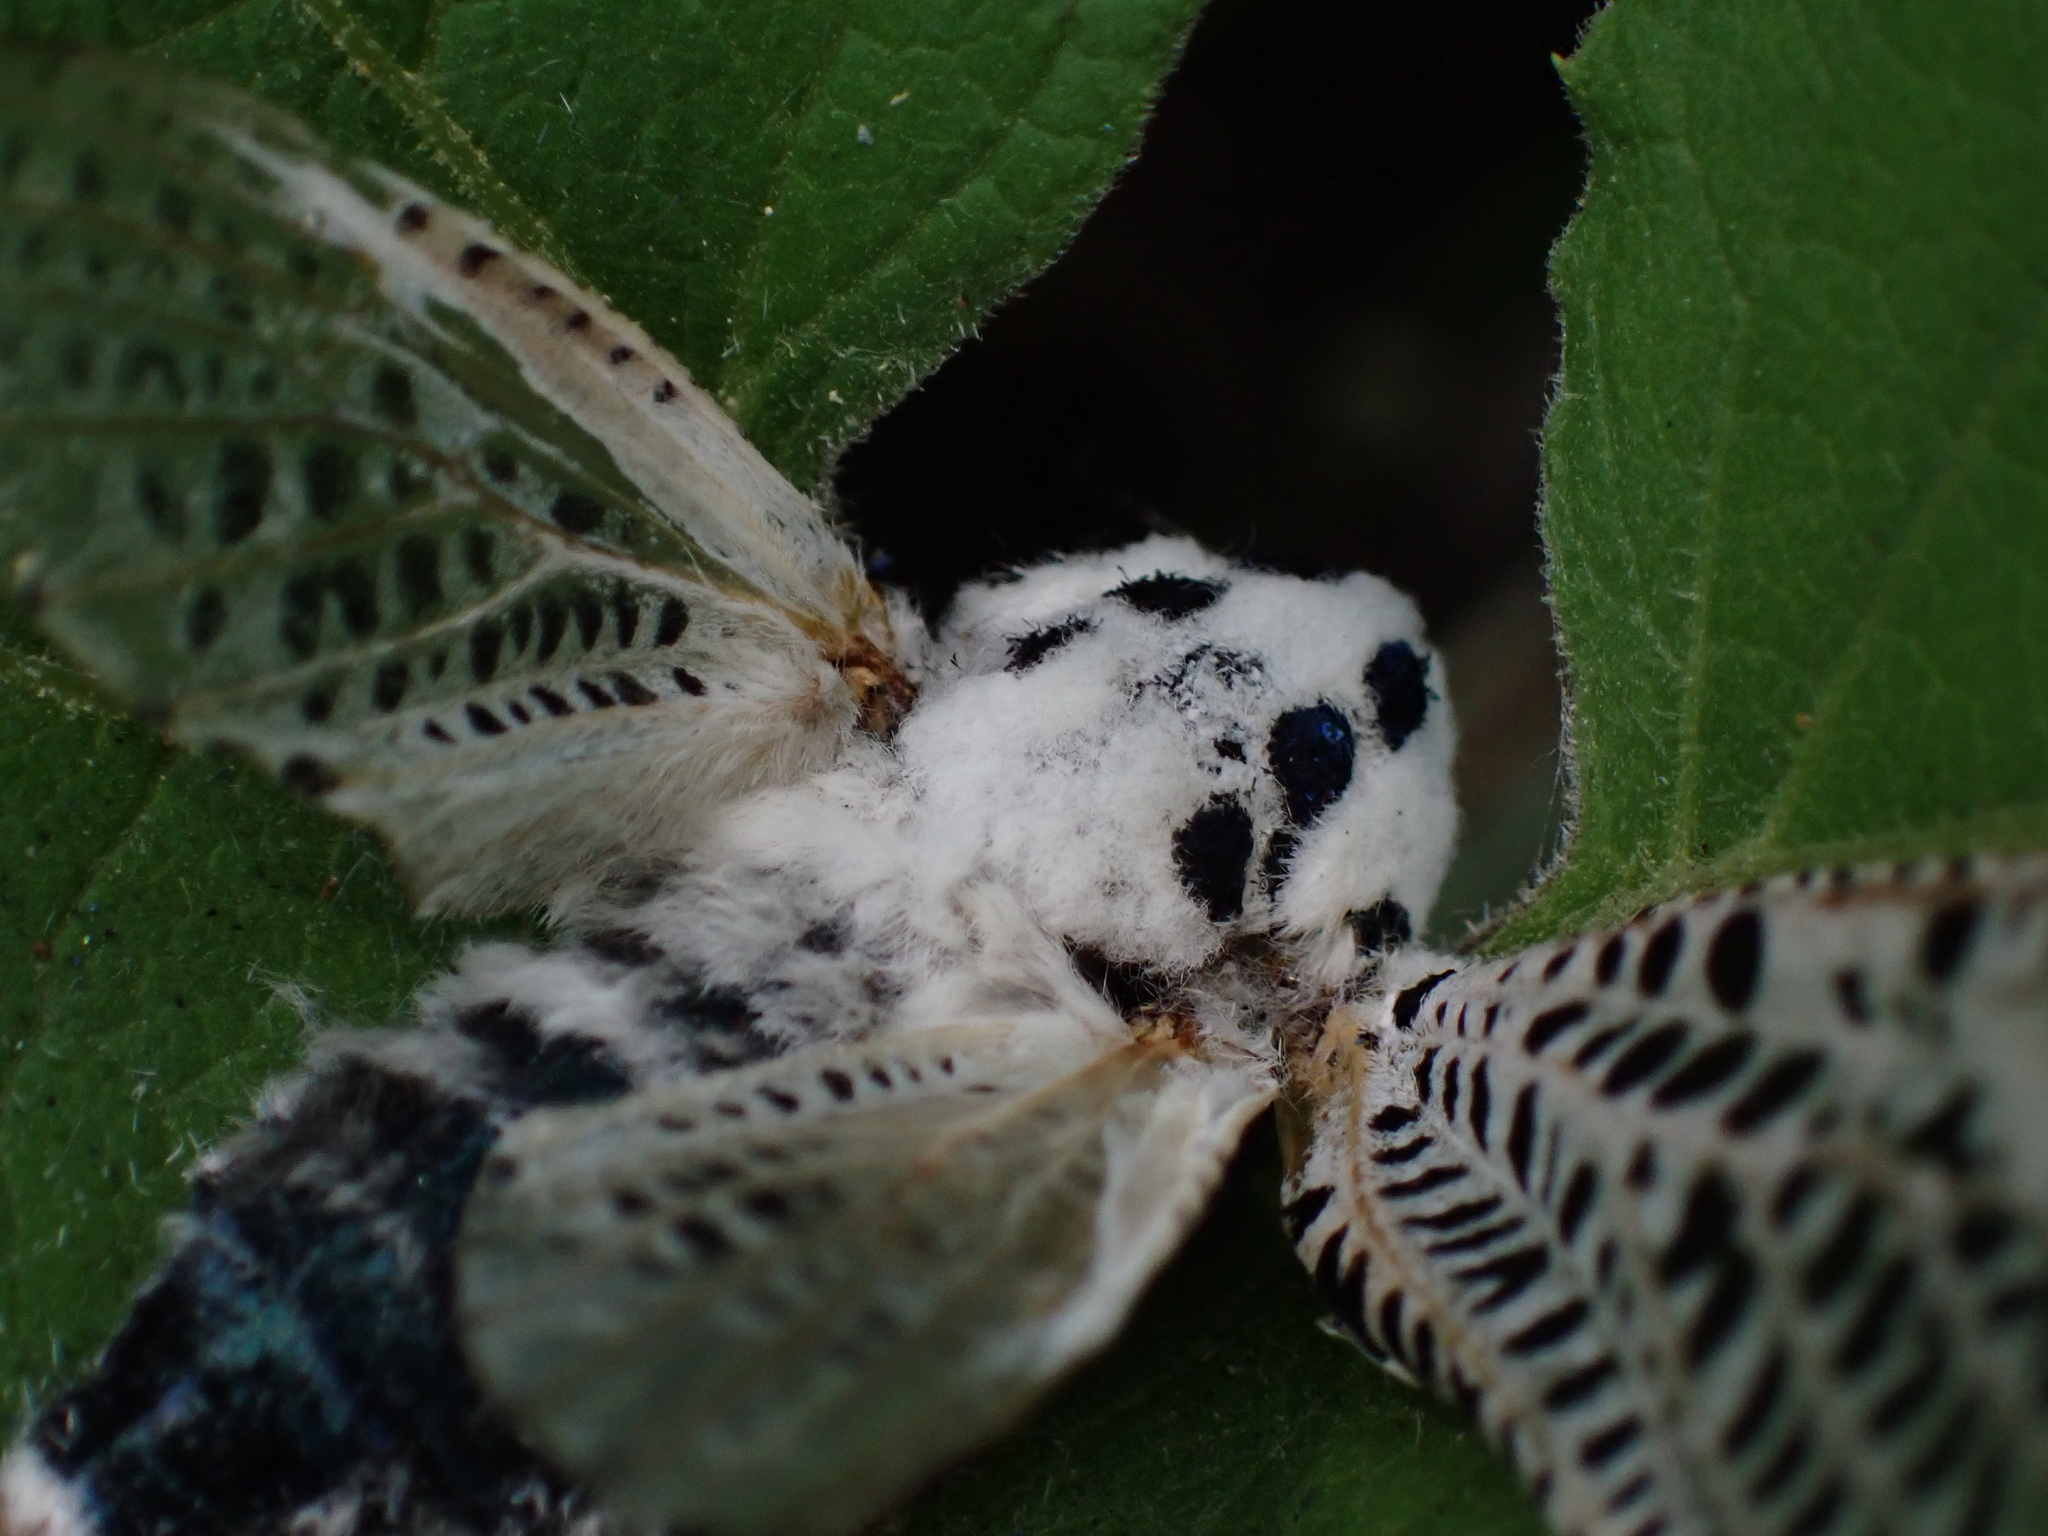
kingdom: Animalia
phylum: Arthropoda
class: Insecta
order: Lepidoptera
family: Cossidae
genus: Zeuzera
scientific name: Zeuzera pyrina
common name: Leopard moth
